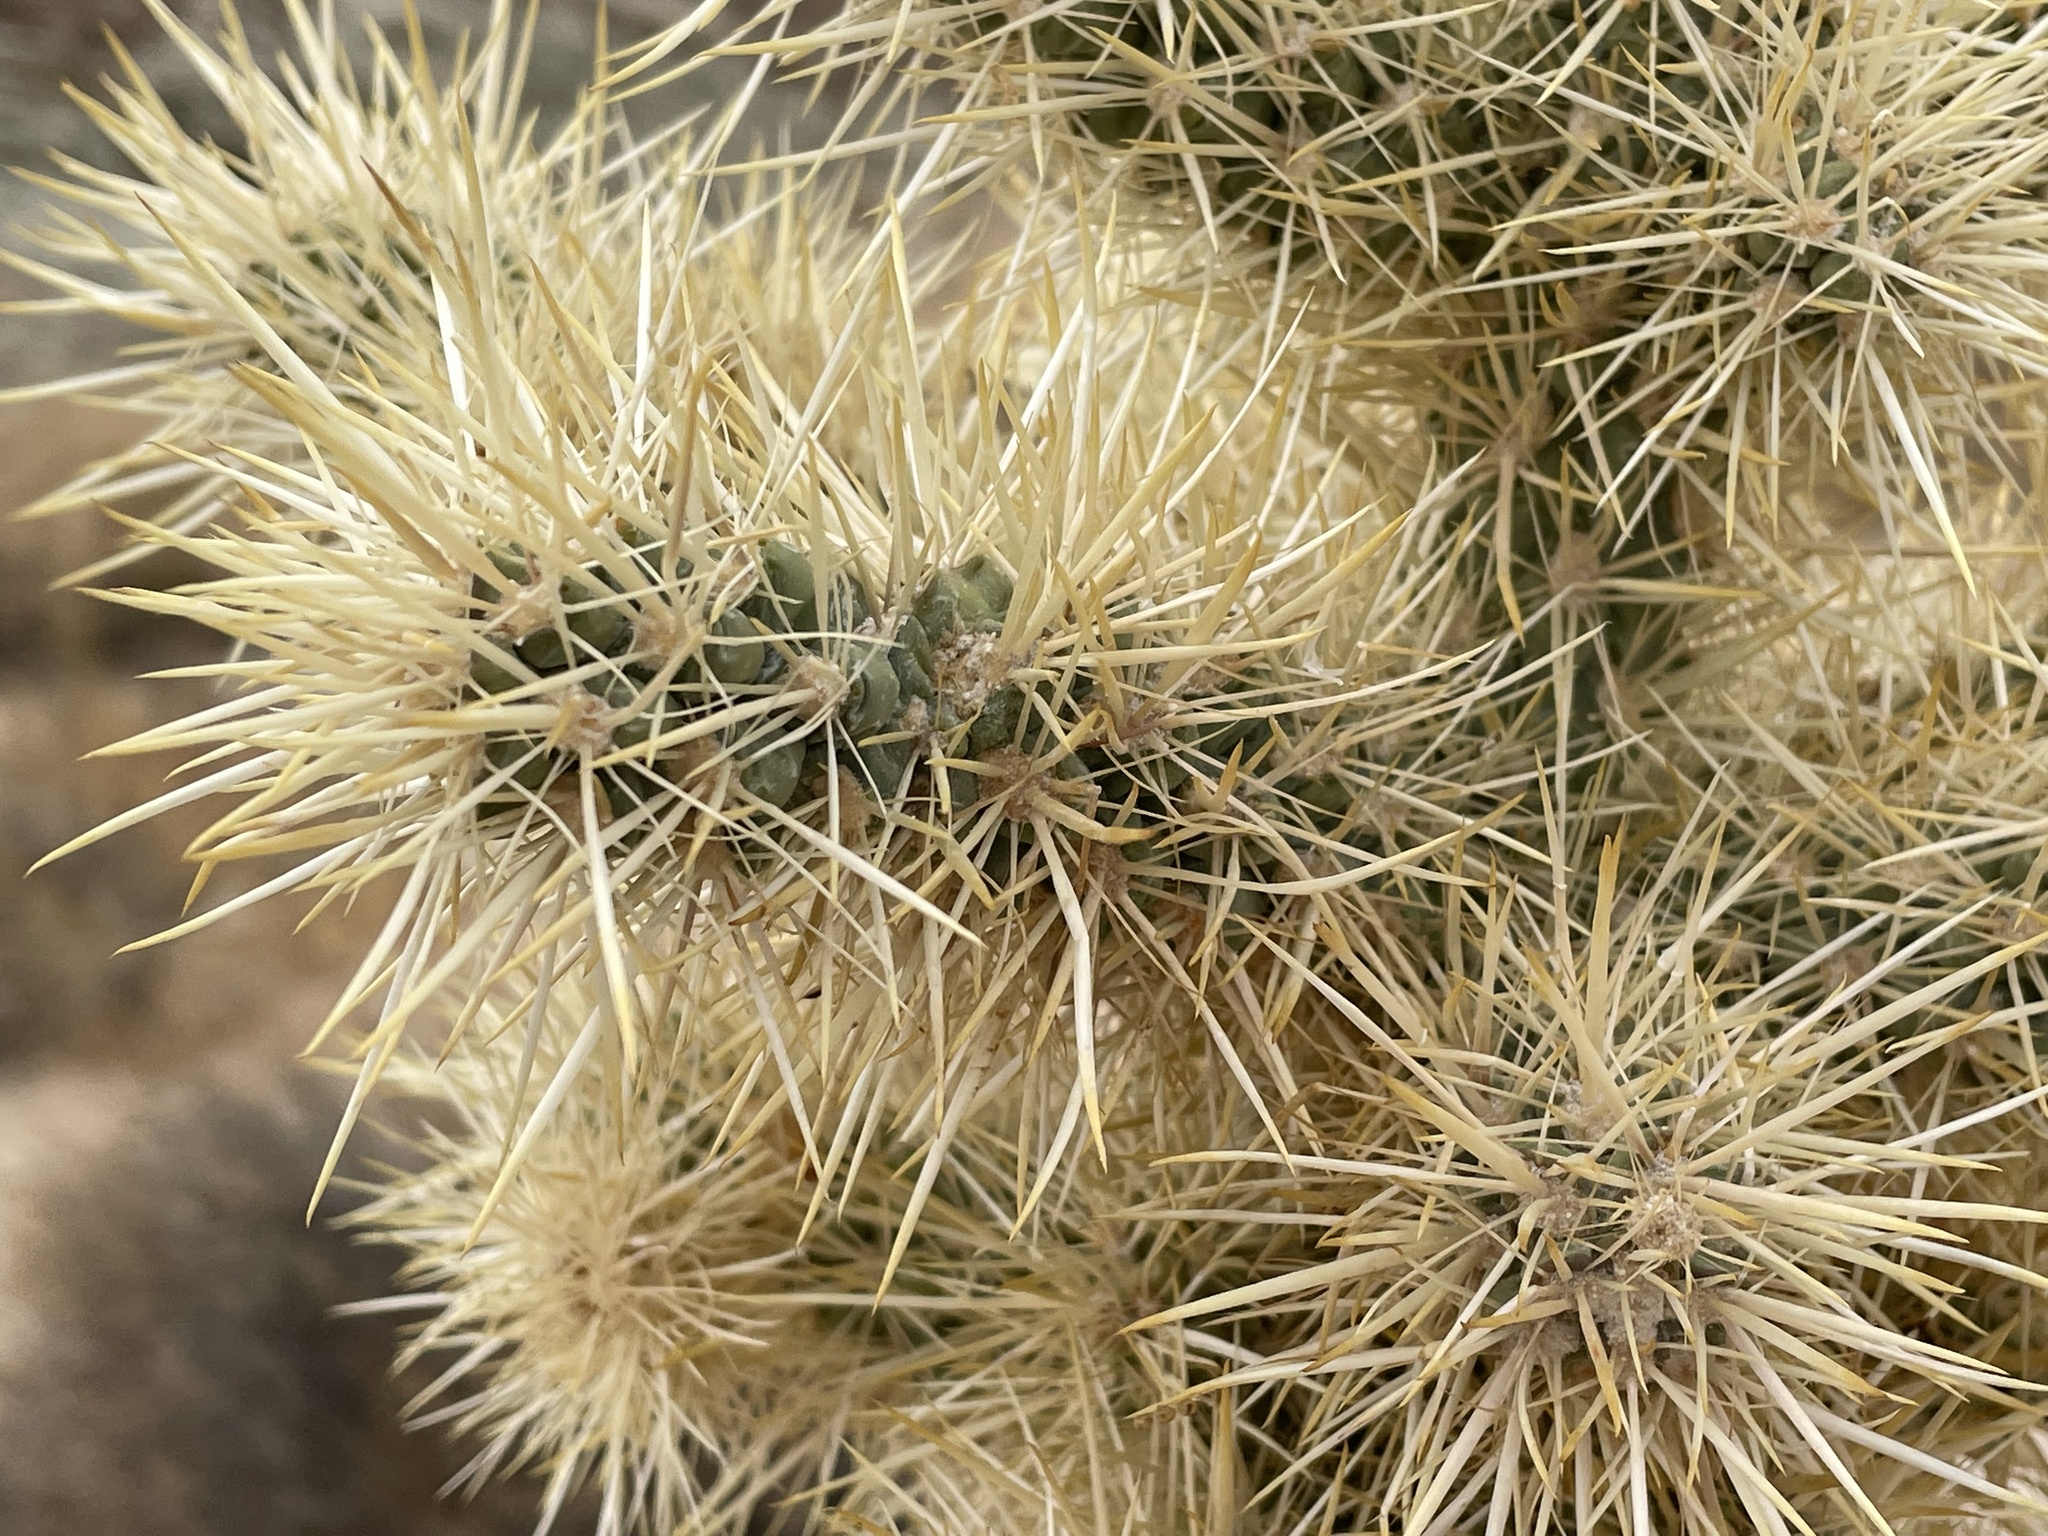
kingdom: Plantae
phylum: Tracheophyta
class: Magnoliopsida
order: Caryophyllales
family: Cactaceae
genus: Cylindropuntia
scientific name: Cylindropuntia echinocarpa
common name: Ground cholla
